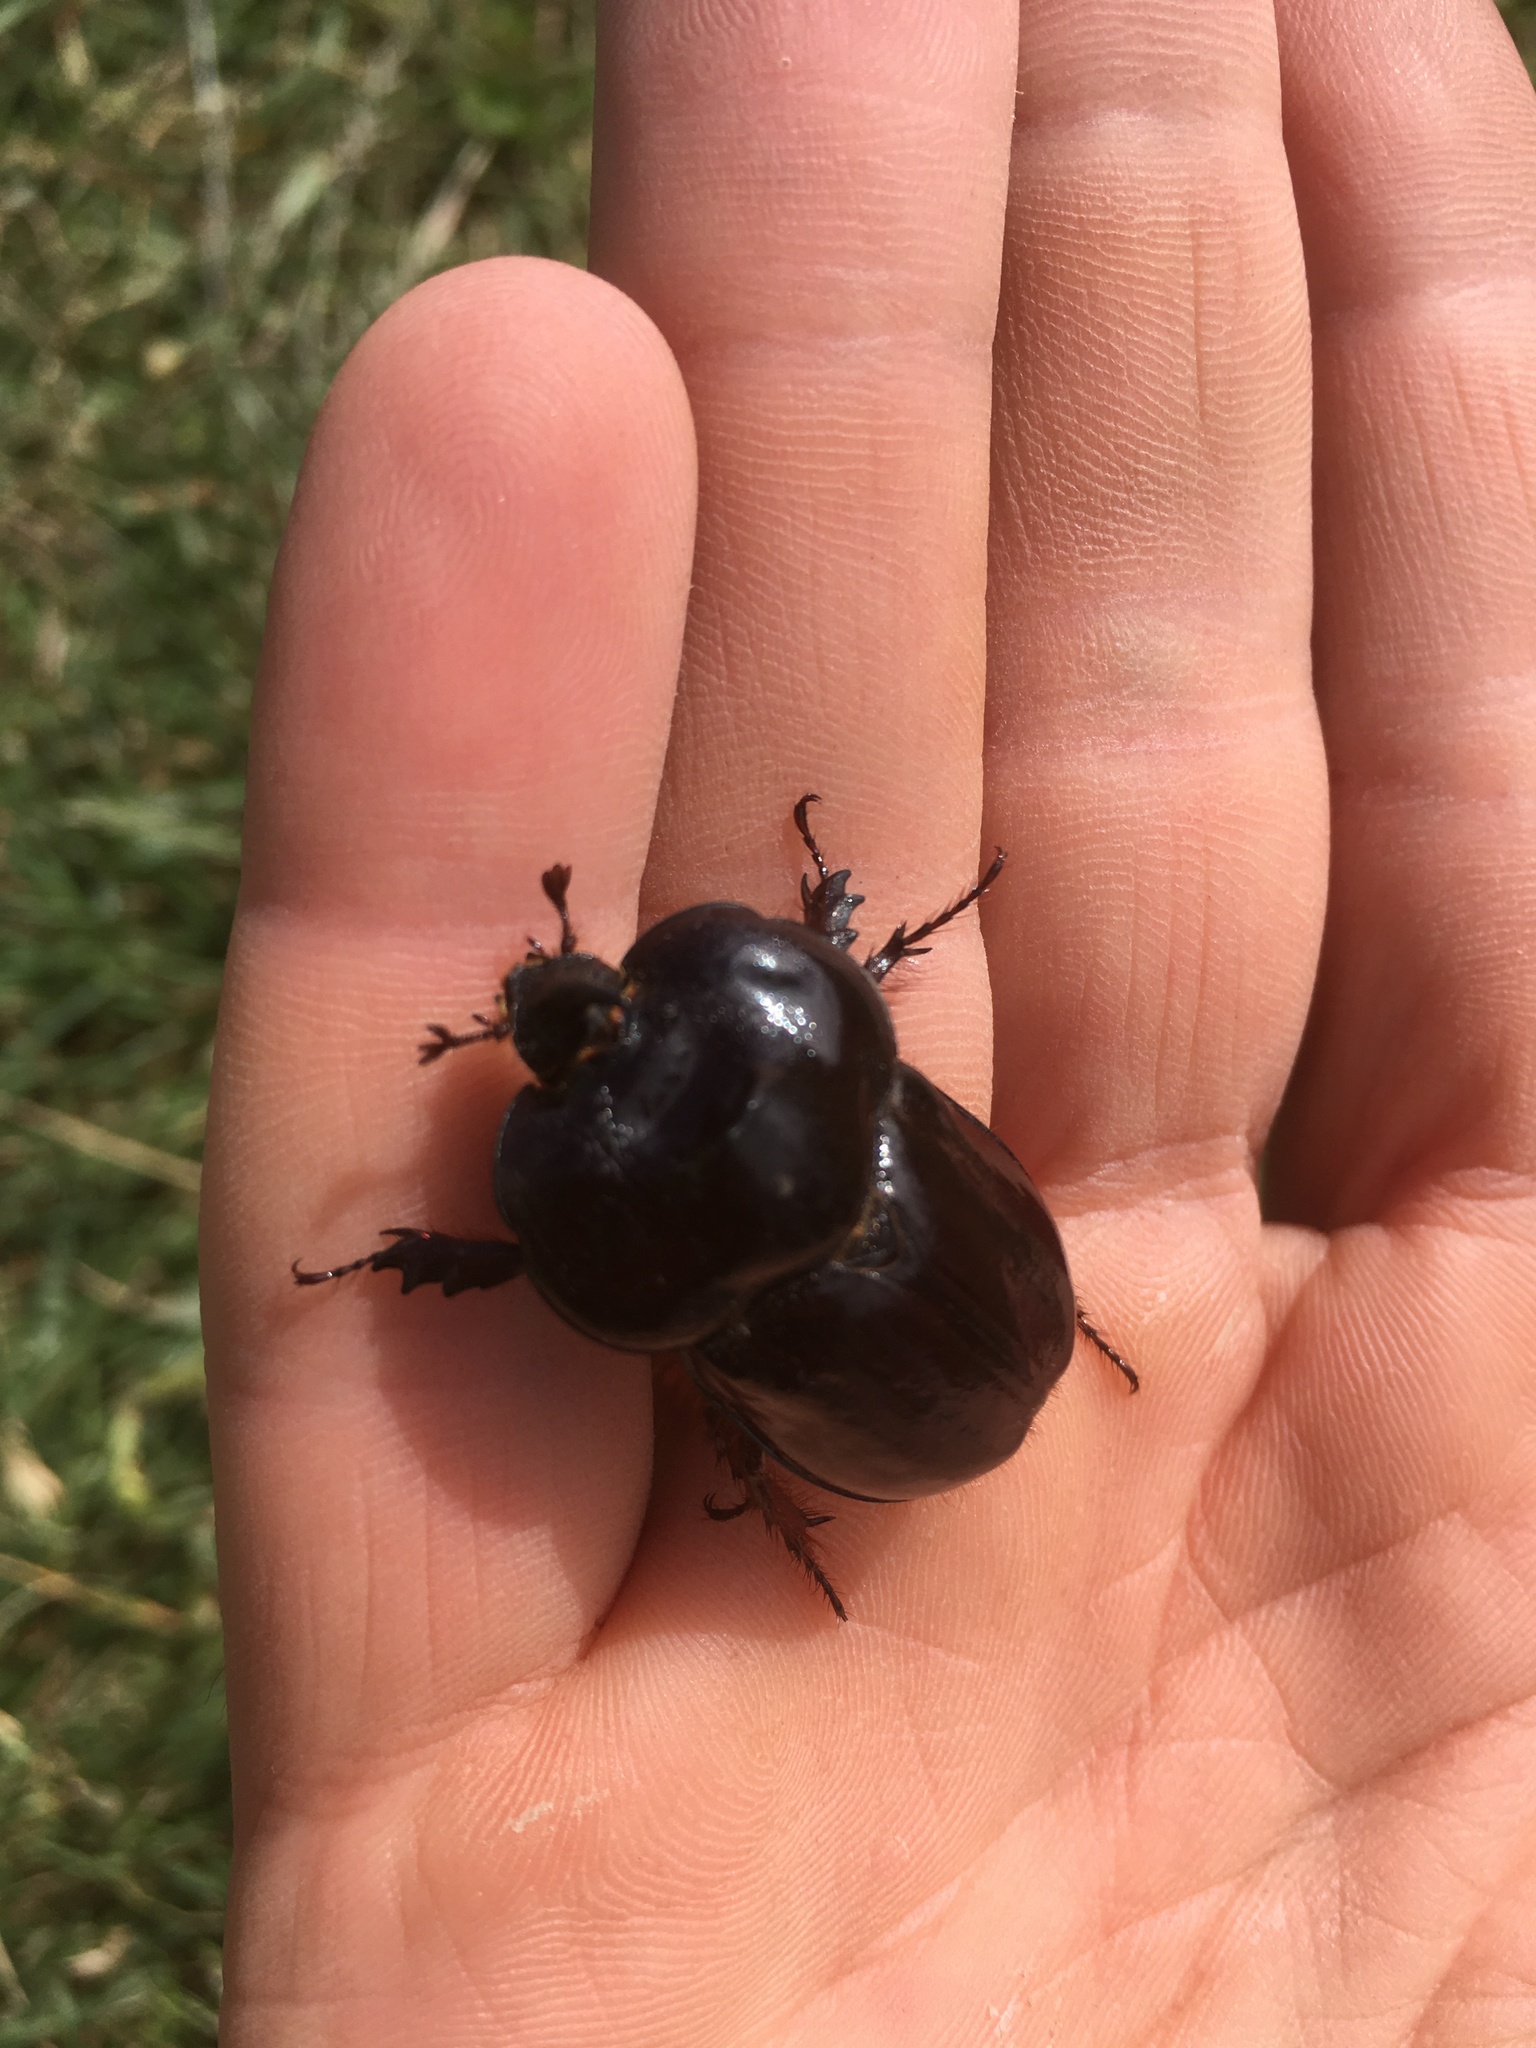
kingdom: Animalia
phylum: Arthropoda
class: Insecta
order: Coleoptera
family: Scarabaeidae
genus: Heterogomphus
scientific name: Heterogomphus laticollis
